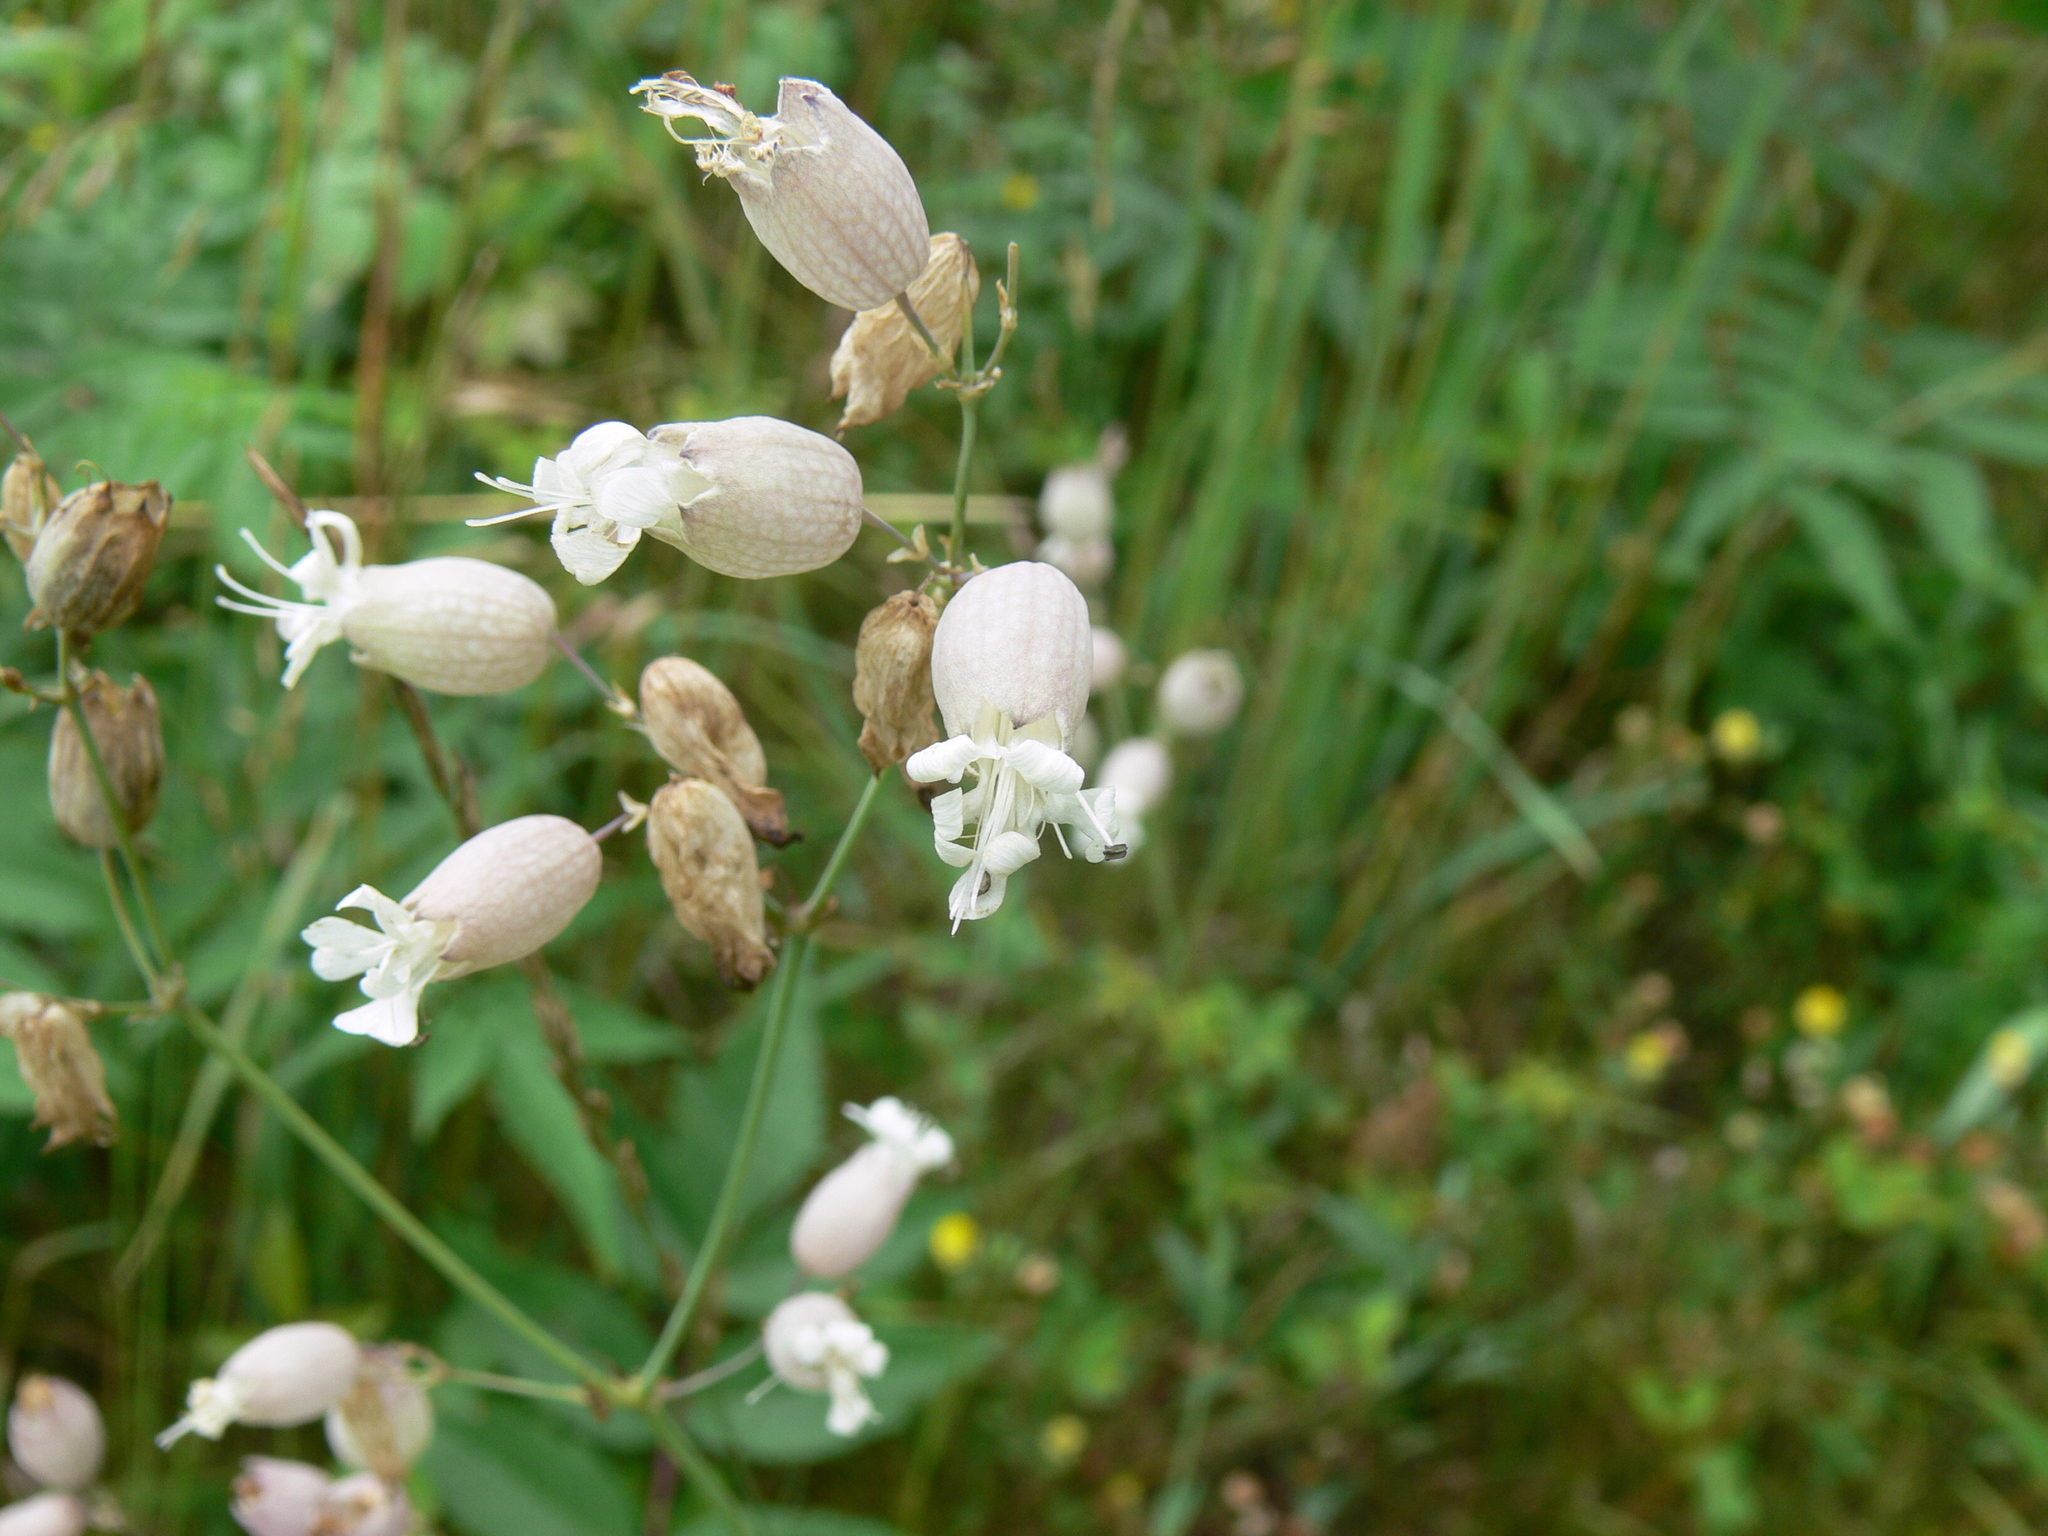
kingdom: Plantae
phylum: Tracheophyta
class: Magnoliopsida
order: Caryophyllales
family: Caryophyllaceae
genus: Silene
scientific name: Silene vulgaris
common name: Bladder campion
